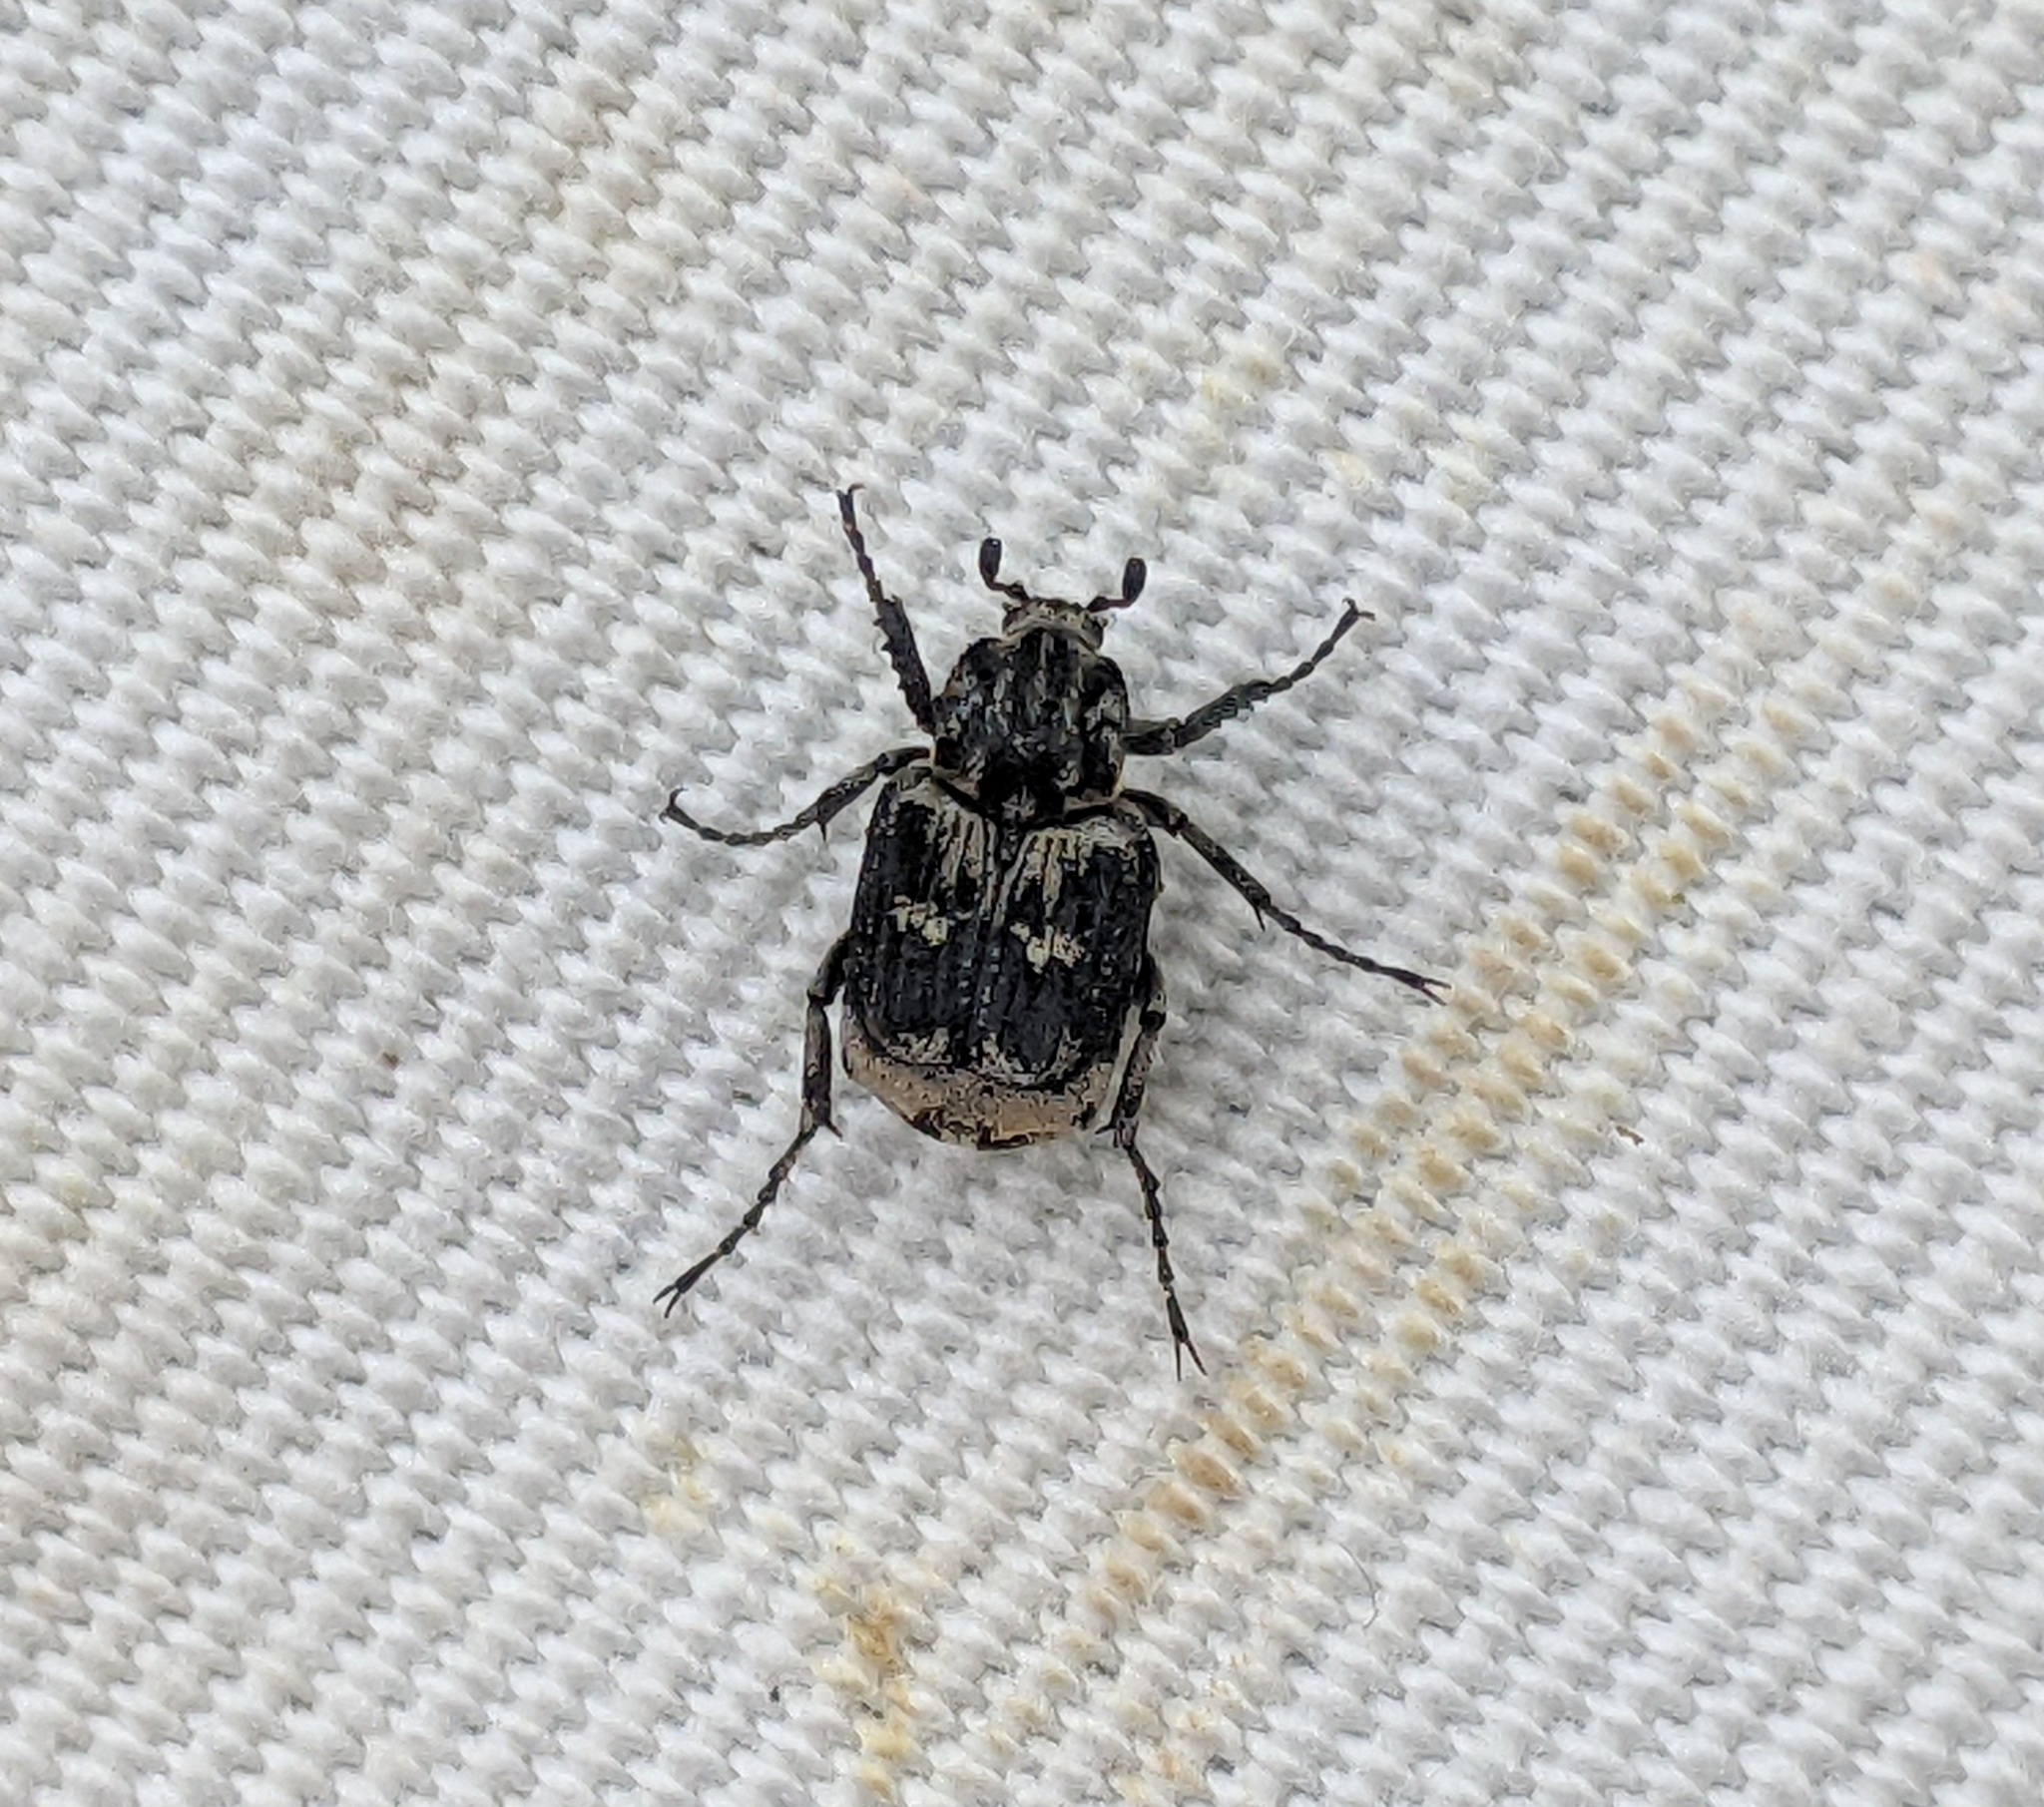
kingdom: Animalia
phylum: Arthropoda
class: Insecta
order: Coleoptera
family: Scarabaeidae
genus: Valgus
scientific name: Valgus hemipterus
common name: Bug flower chafer
